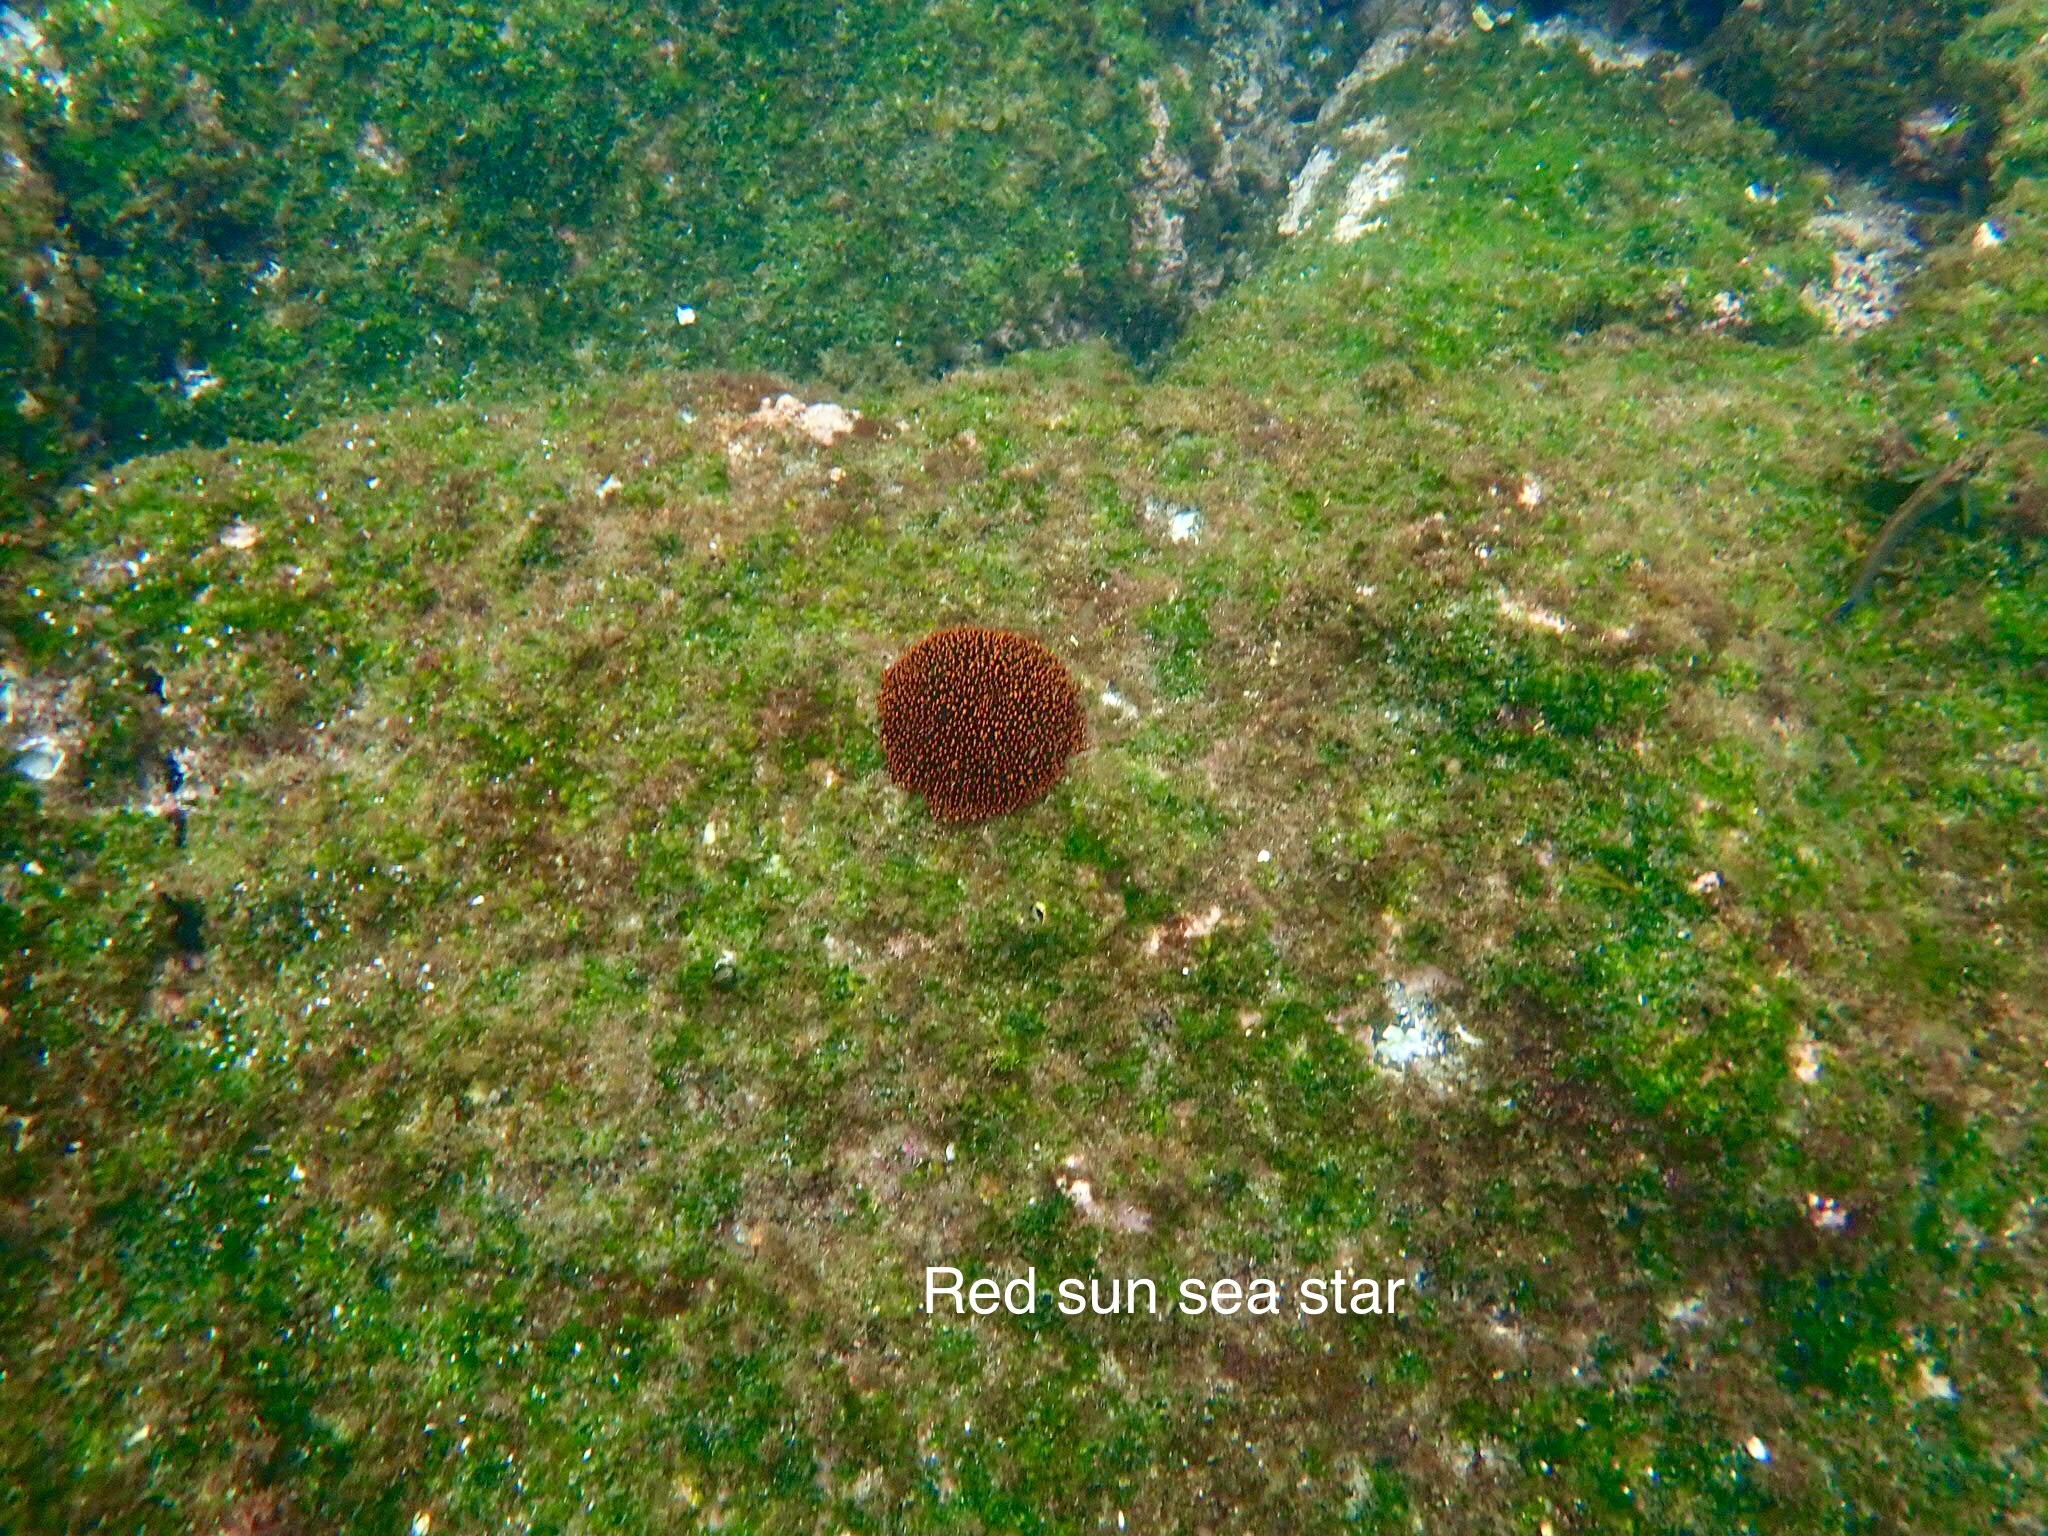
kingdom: Animalia
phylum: Echinodermata
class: Asteroidea
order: Forcipulatida
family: Heliasteridae
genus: Heliaster
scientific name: Heliaster cumingi
